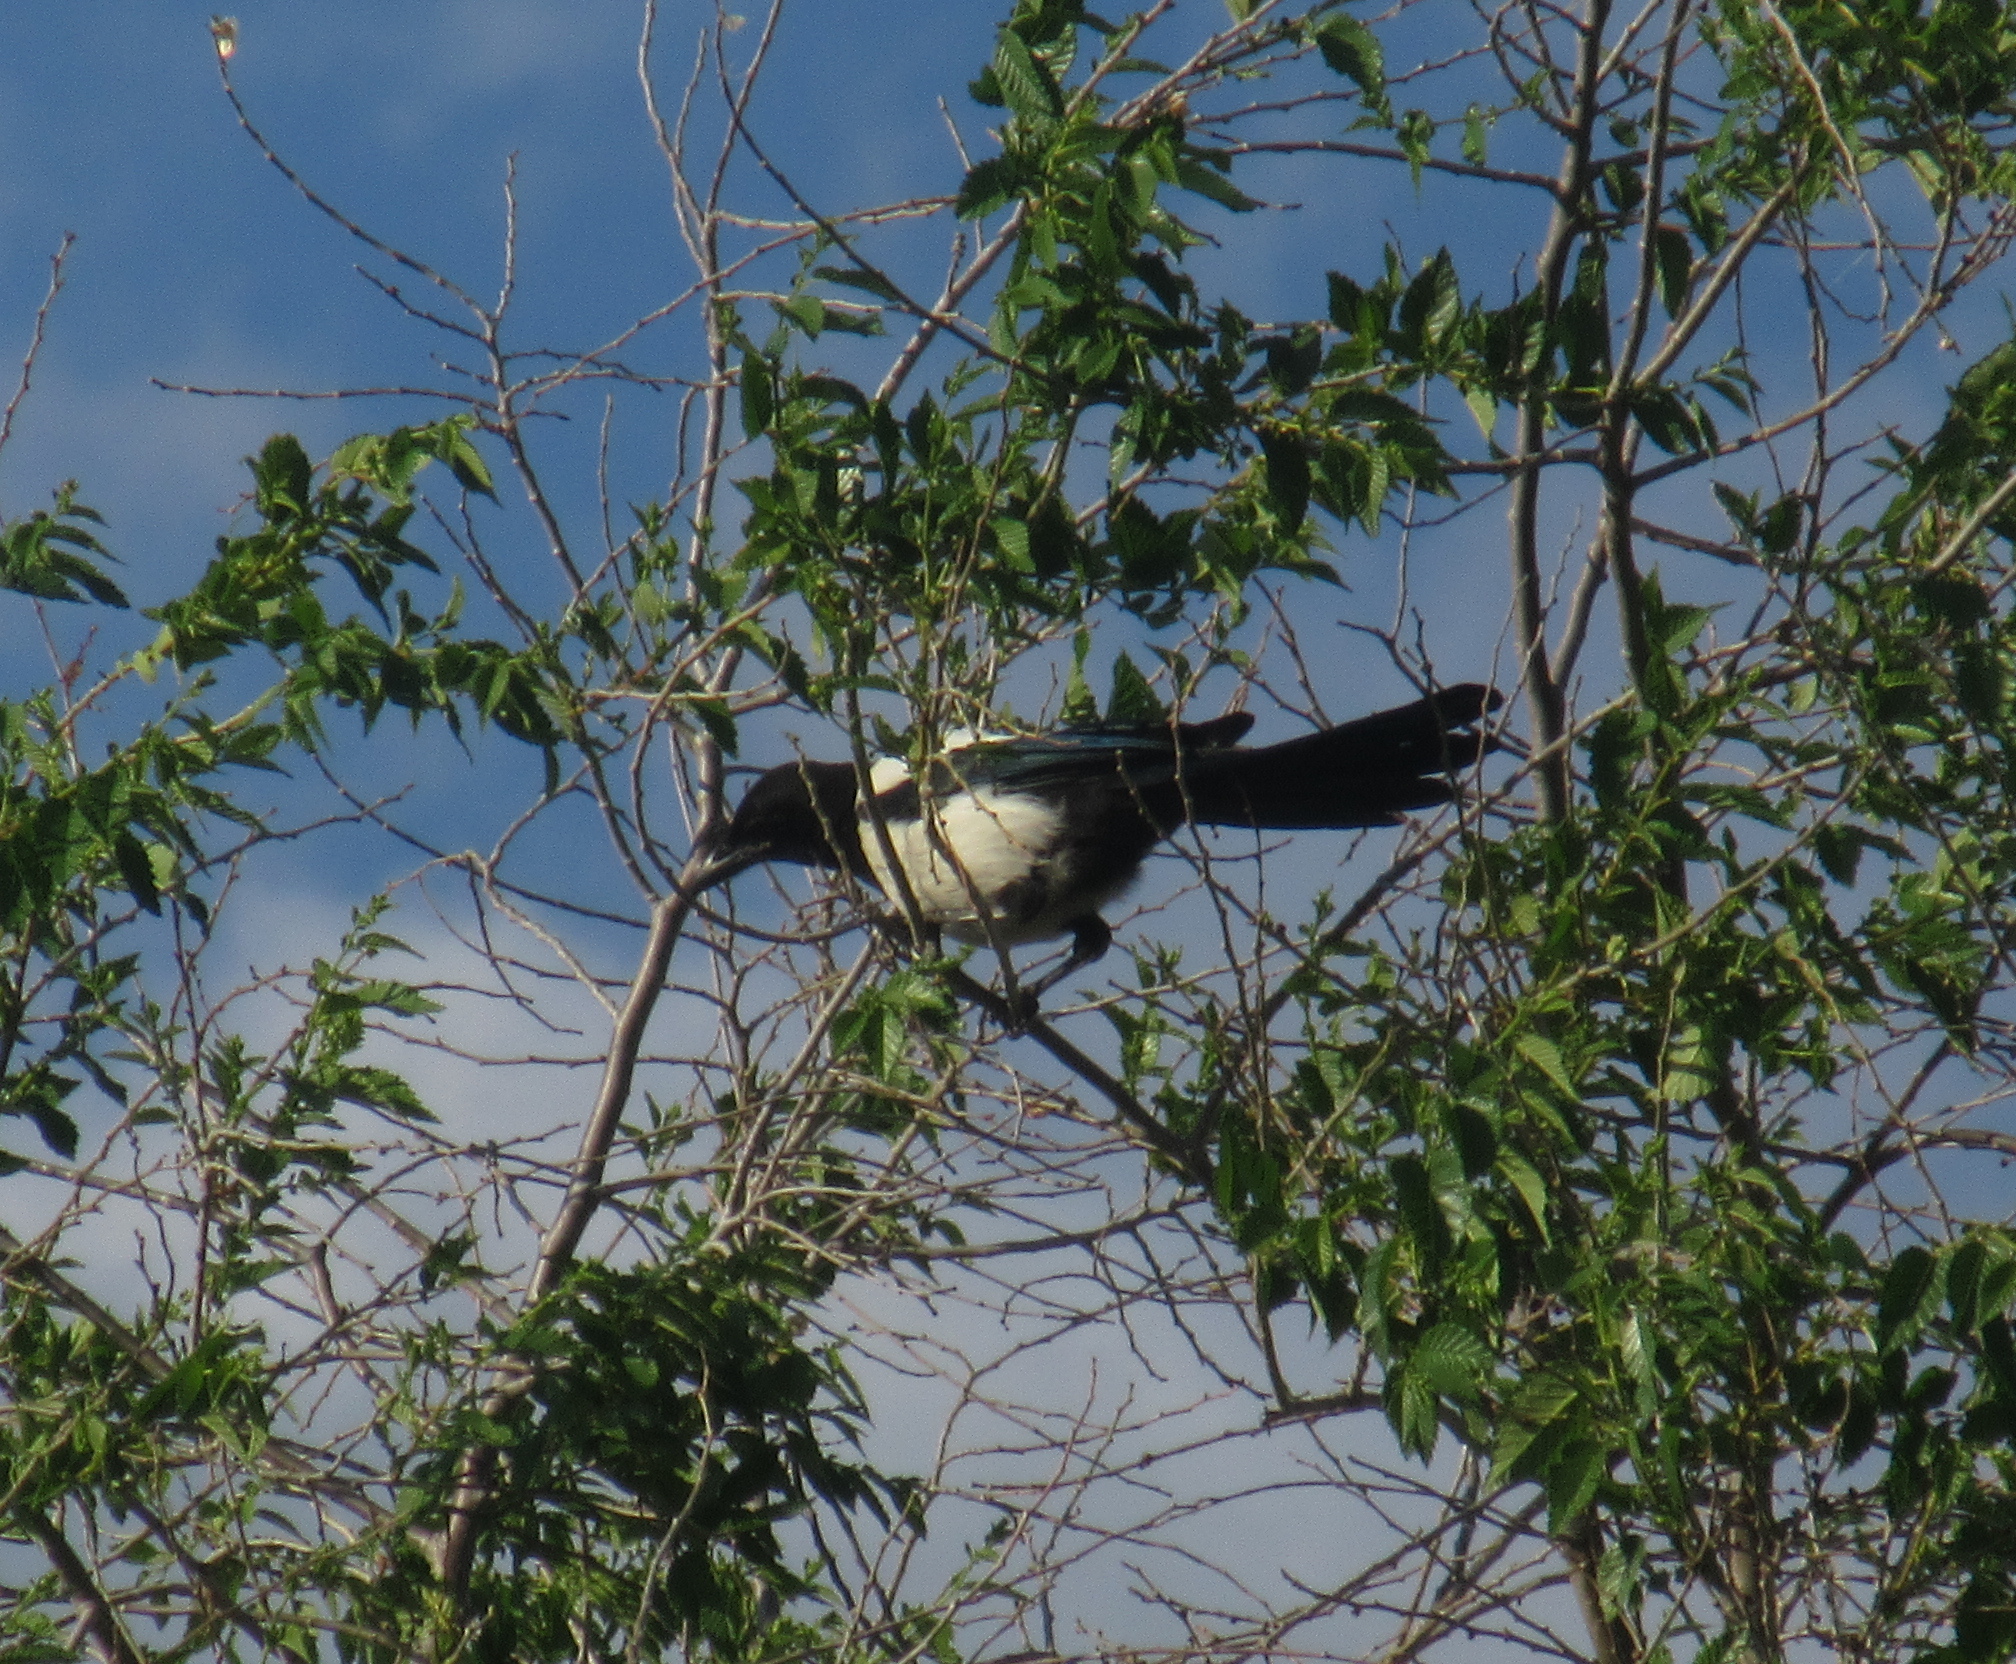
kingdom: Animalia
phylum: Chordata
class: Aves
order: Passeriformes
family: Corvidae
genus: Pica
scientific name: Pica pica
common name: Eurasian magpie
